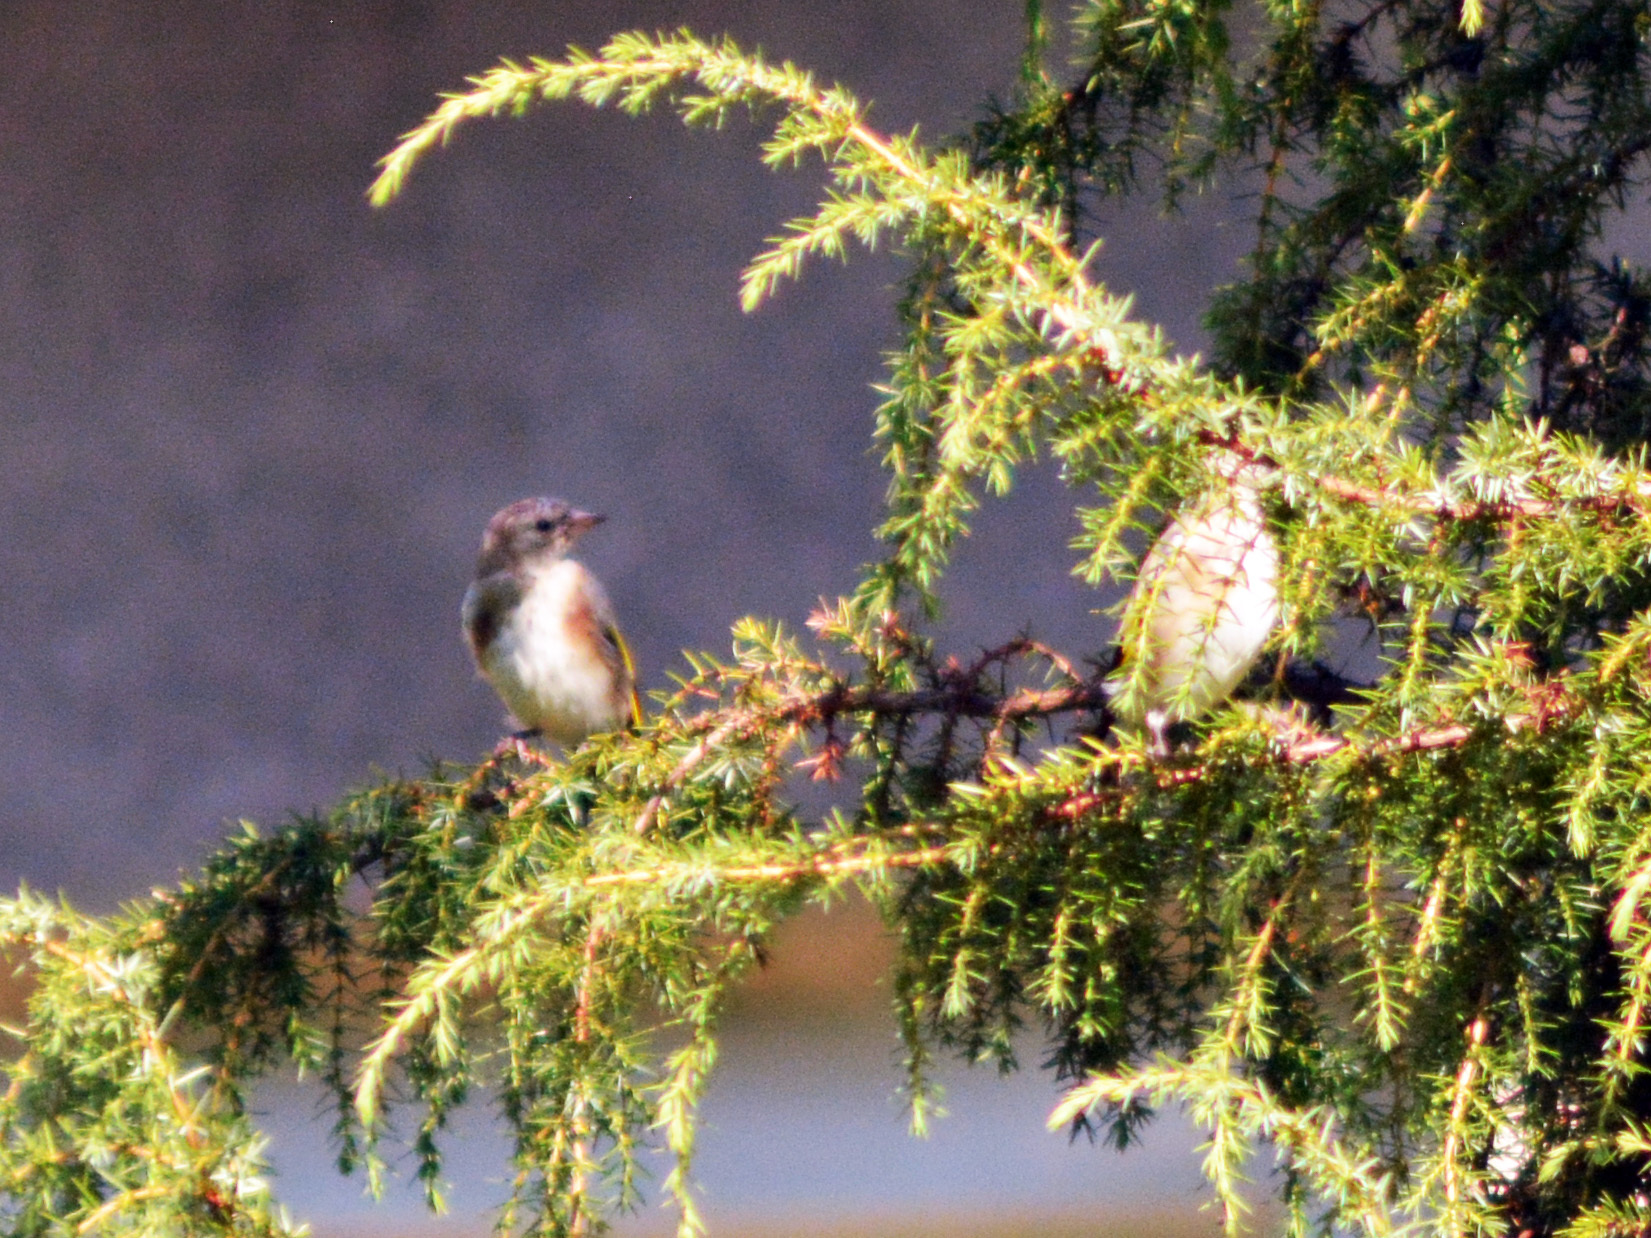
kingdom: Animalia
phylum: Chordata
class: Aves
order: Passeriformes
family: Fringillidae
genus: Carduelis
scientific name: Carduelis carduelis
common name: European goldfinch
